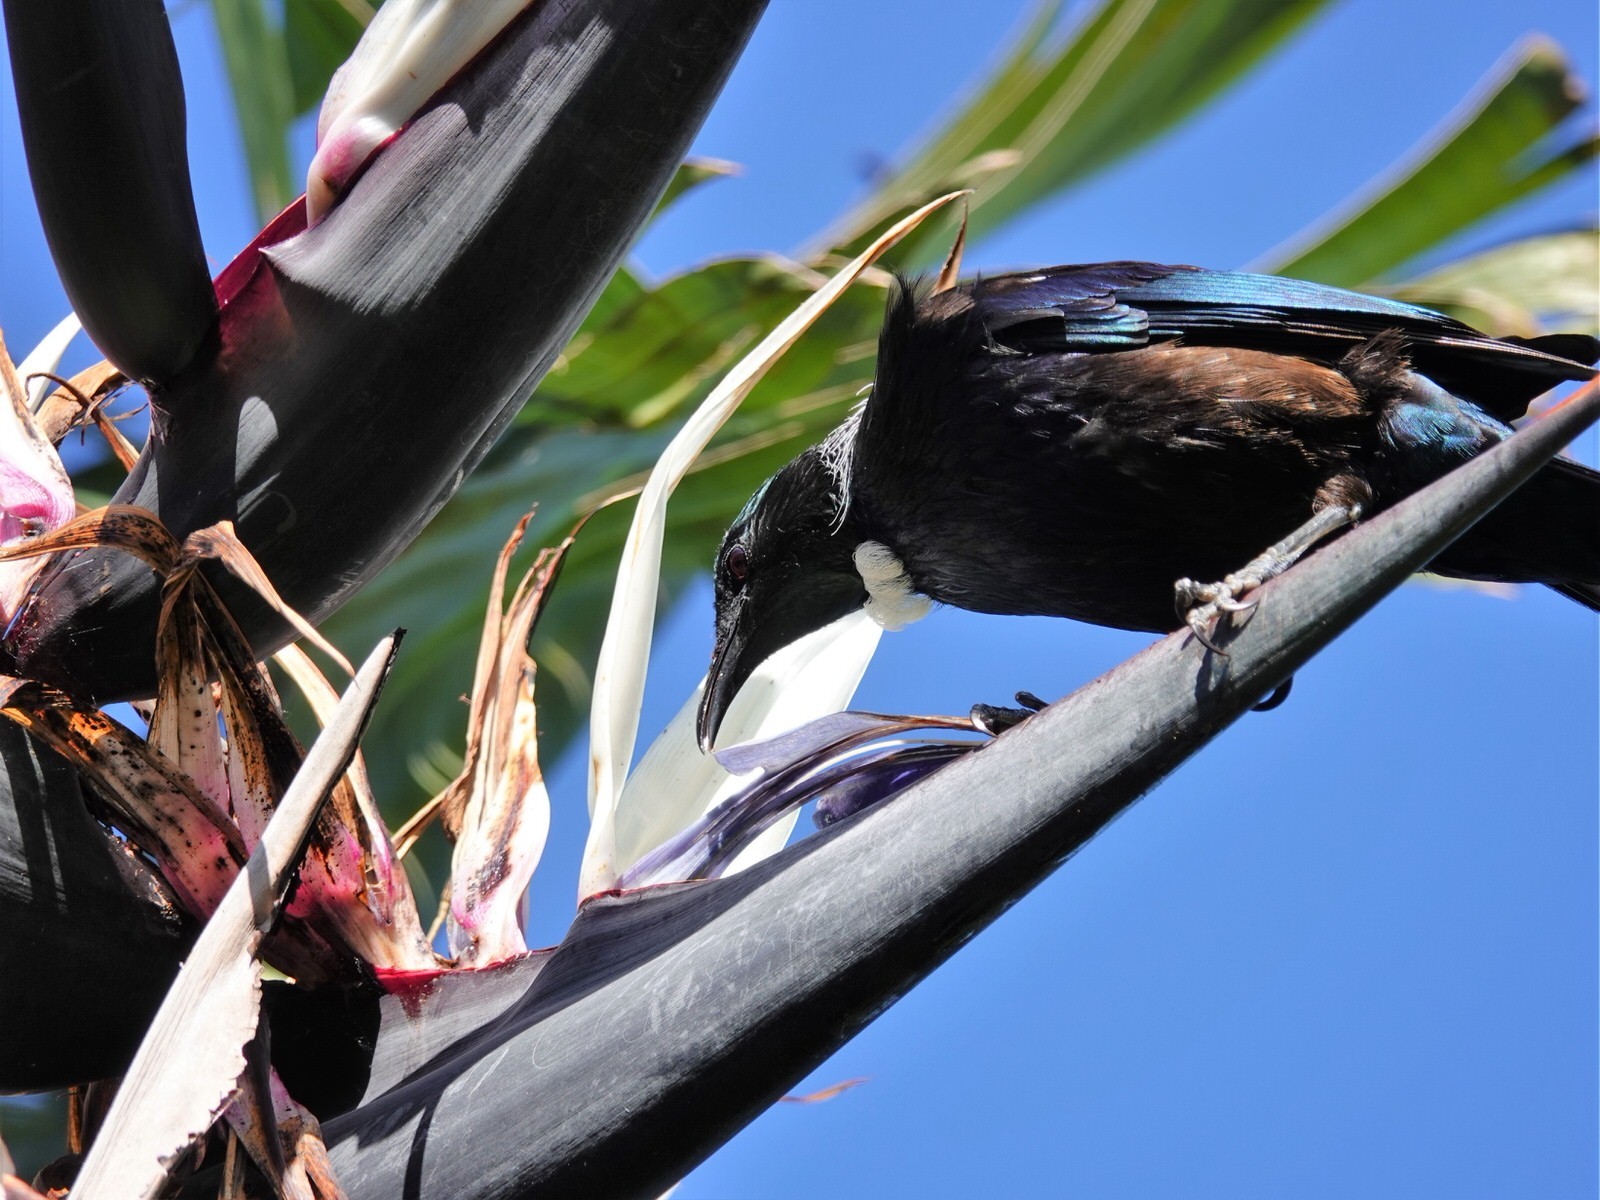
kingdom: Animalia
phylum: Chordata
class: Aves
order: Passeriformes
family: Meliphagidae
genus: Prosthemadera
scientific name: Prosthemadera novaeseelandiae
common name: Tui
